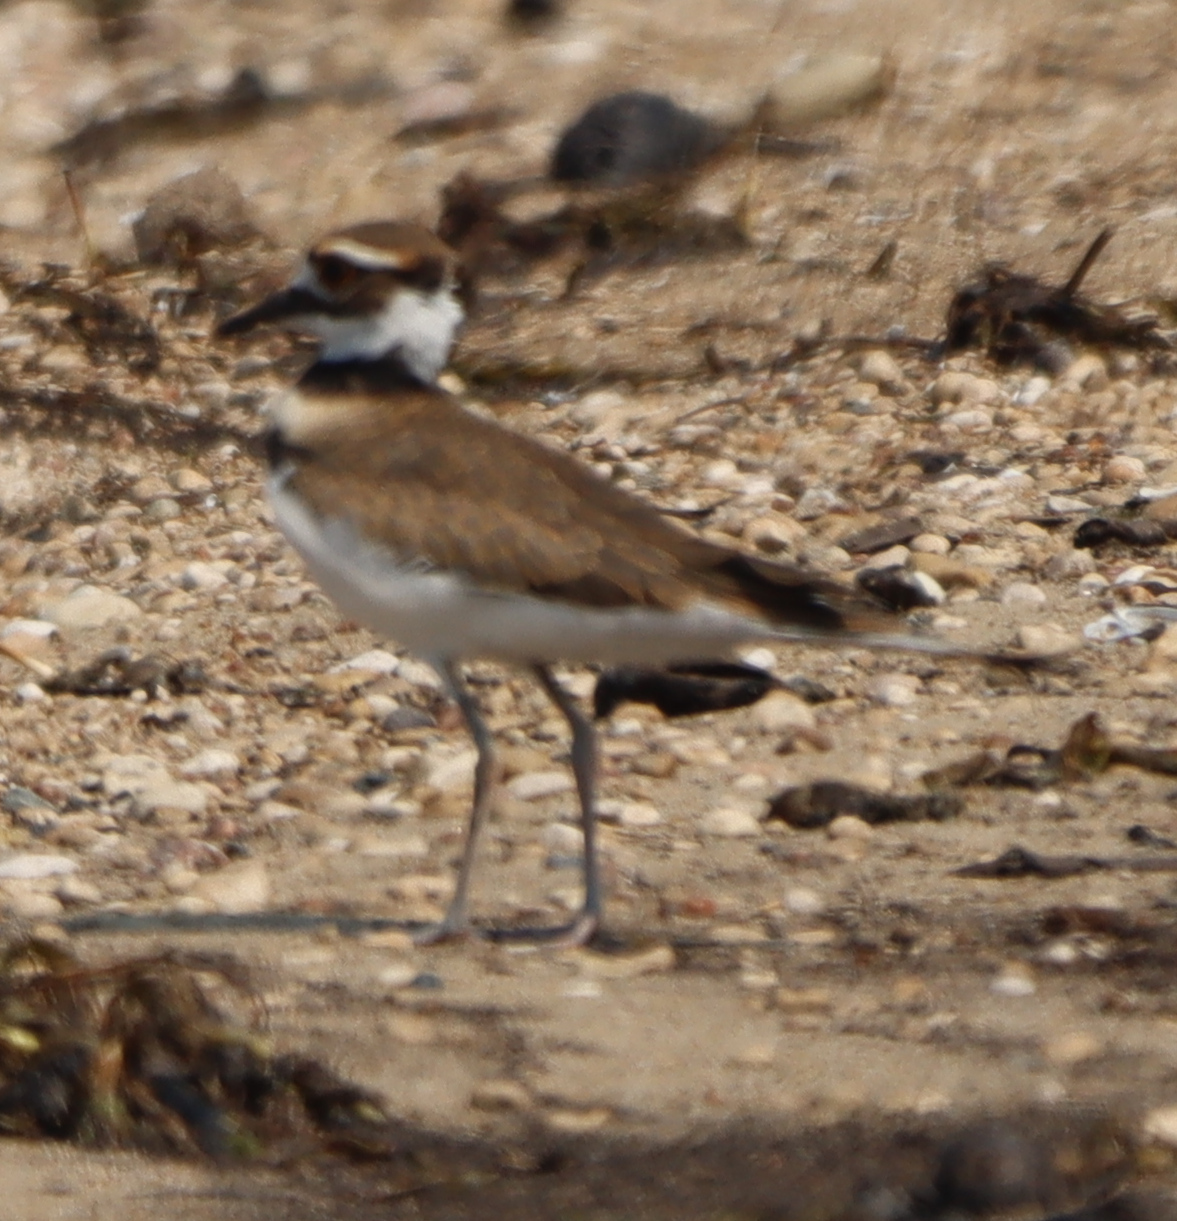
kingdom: Animalia
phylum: Chordata
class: Aves
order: Charadriiformes
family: Charadriidae
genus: Charadrius
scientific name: Charadrius vociferus
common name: Killdeer
